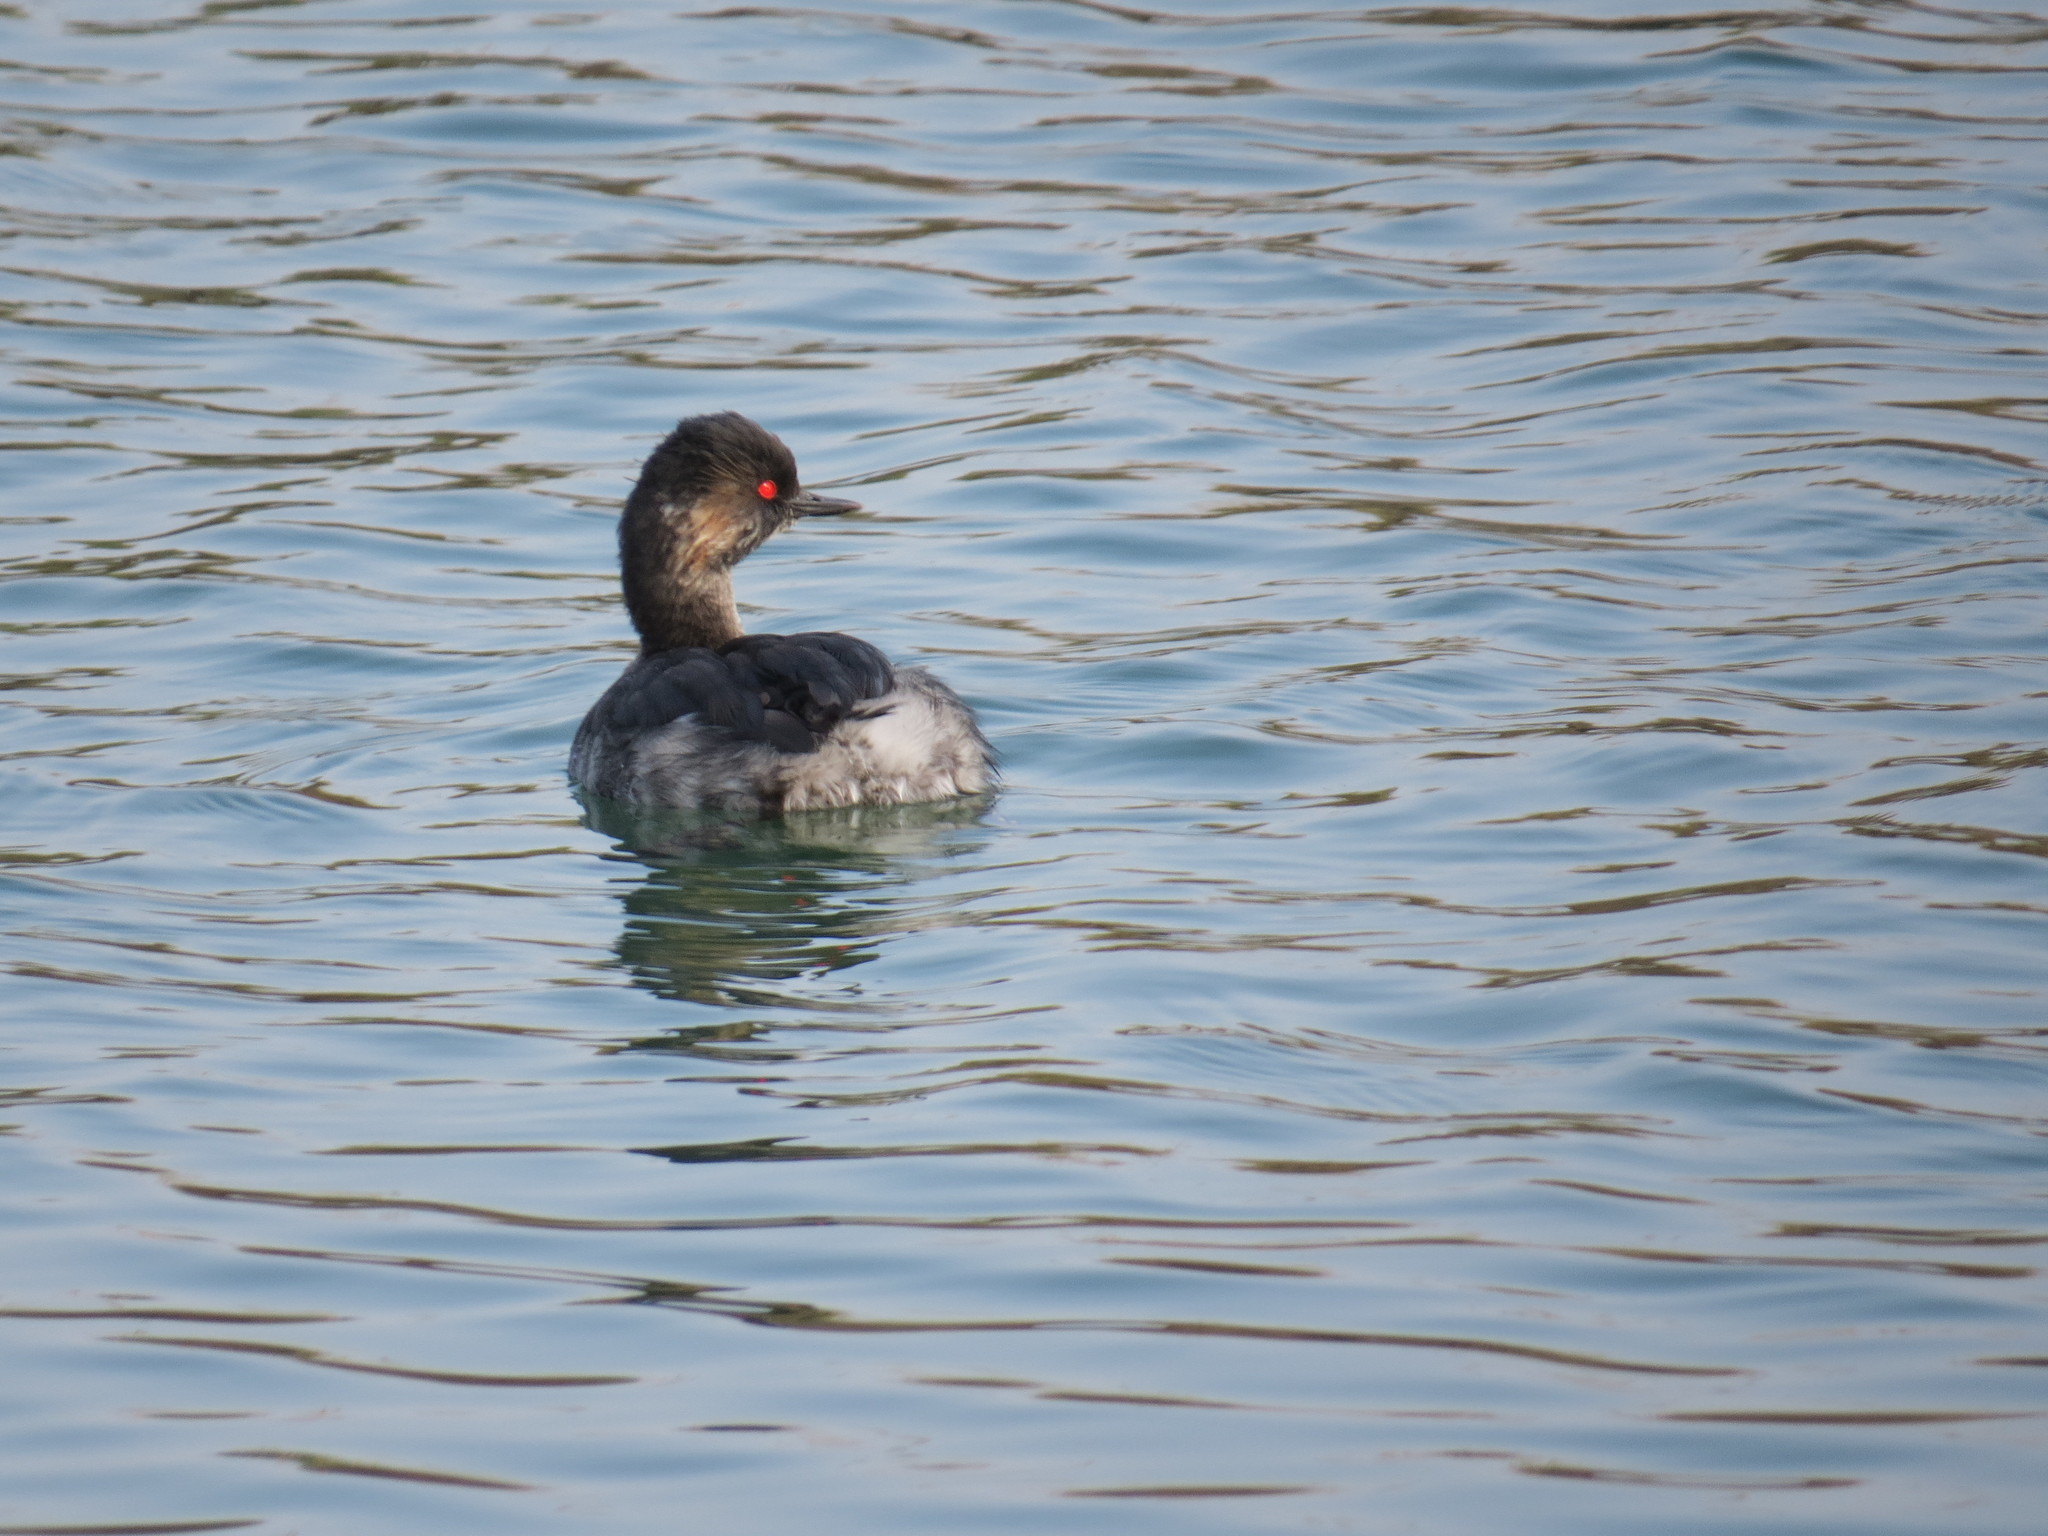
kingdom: Animalia
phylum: Chordata
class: Aves
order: Podicipediformes
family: Podicipedidae
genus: Podiceps
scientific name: Podiceps nigricollis
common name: Black-necked grebe
